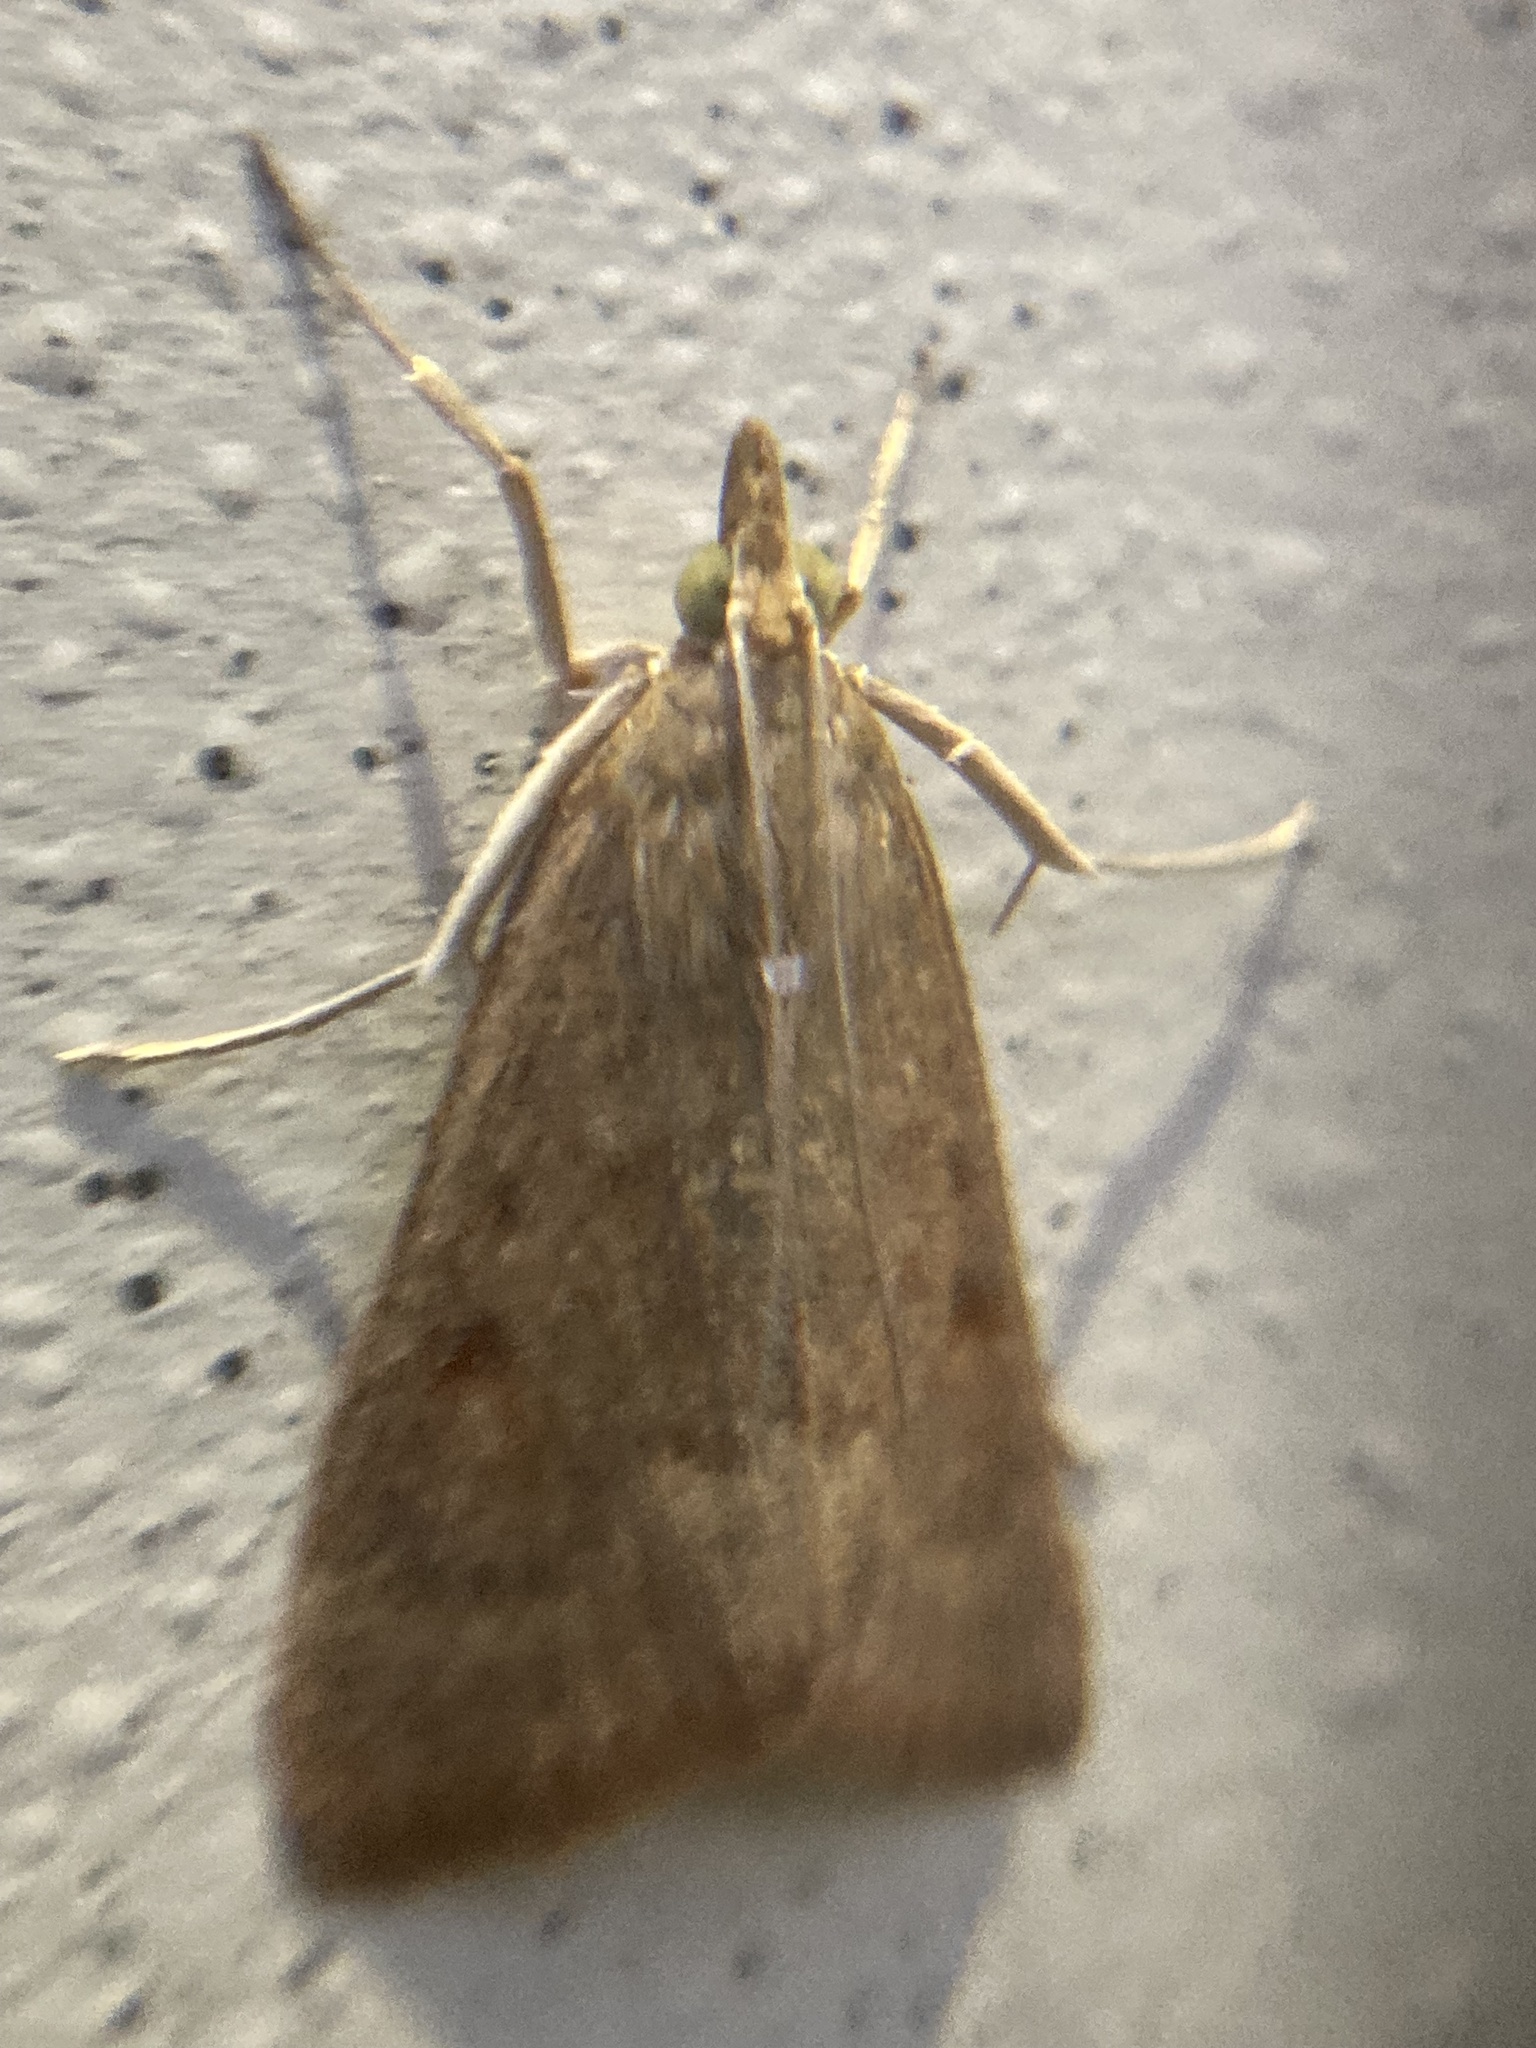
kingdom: Animalia
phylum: Arthropoda
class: Insecta
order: Lepidoptera
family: Crambidae
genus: Achyra
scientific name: Achyra rantalis
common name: Garden webworm
